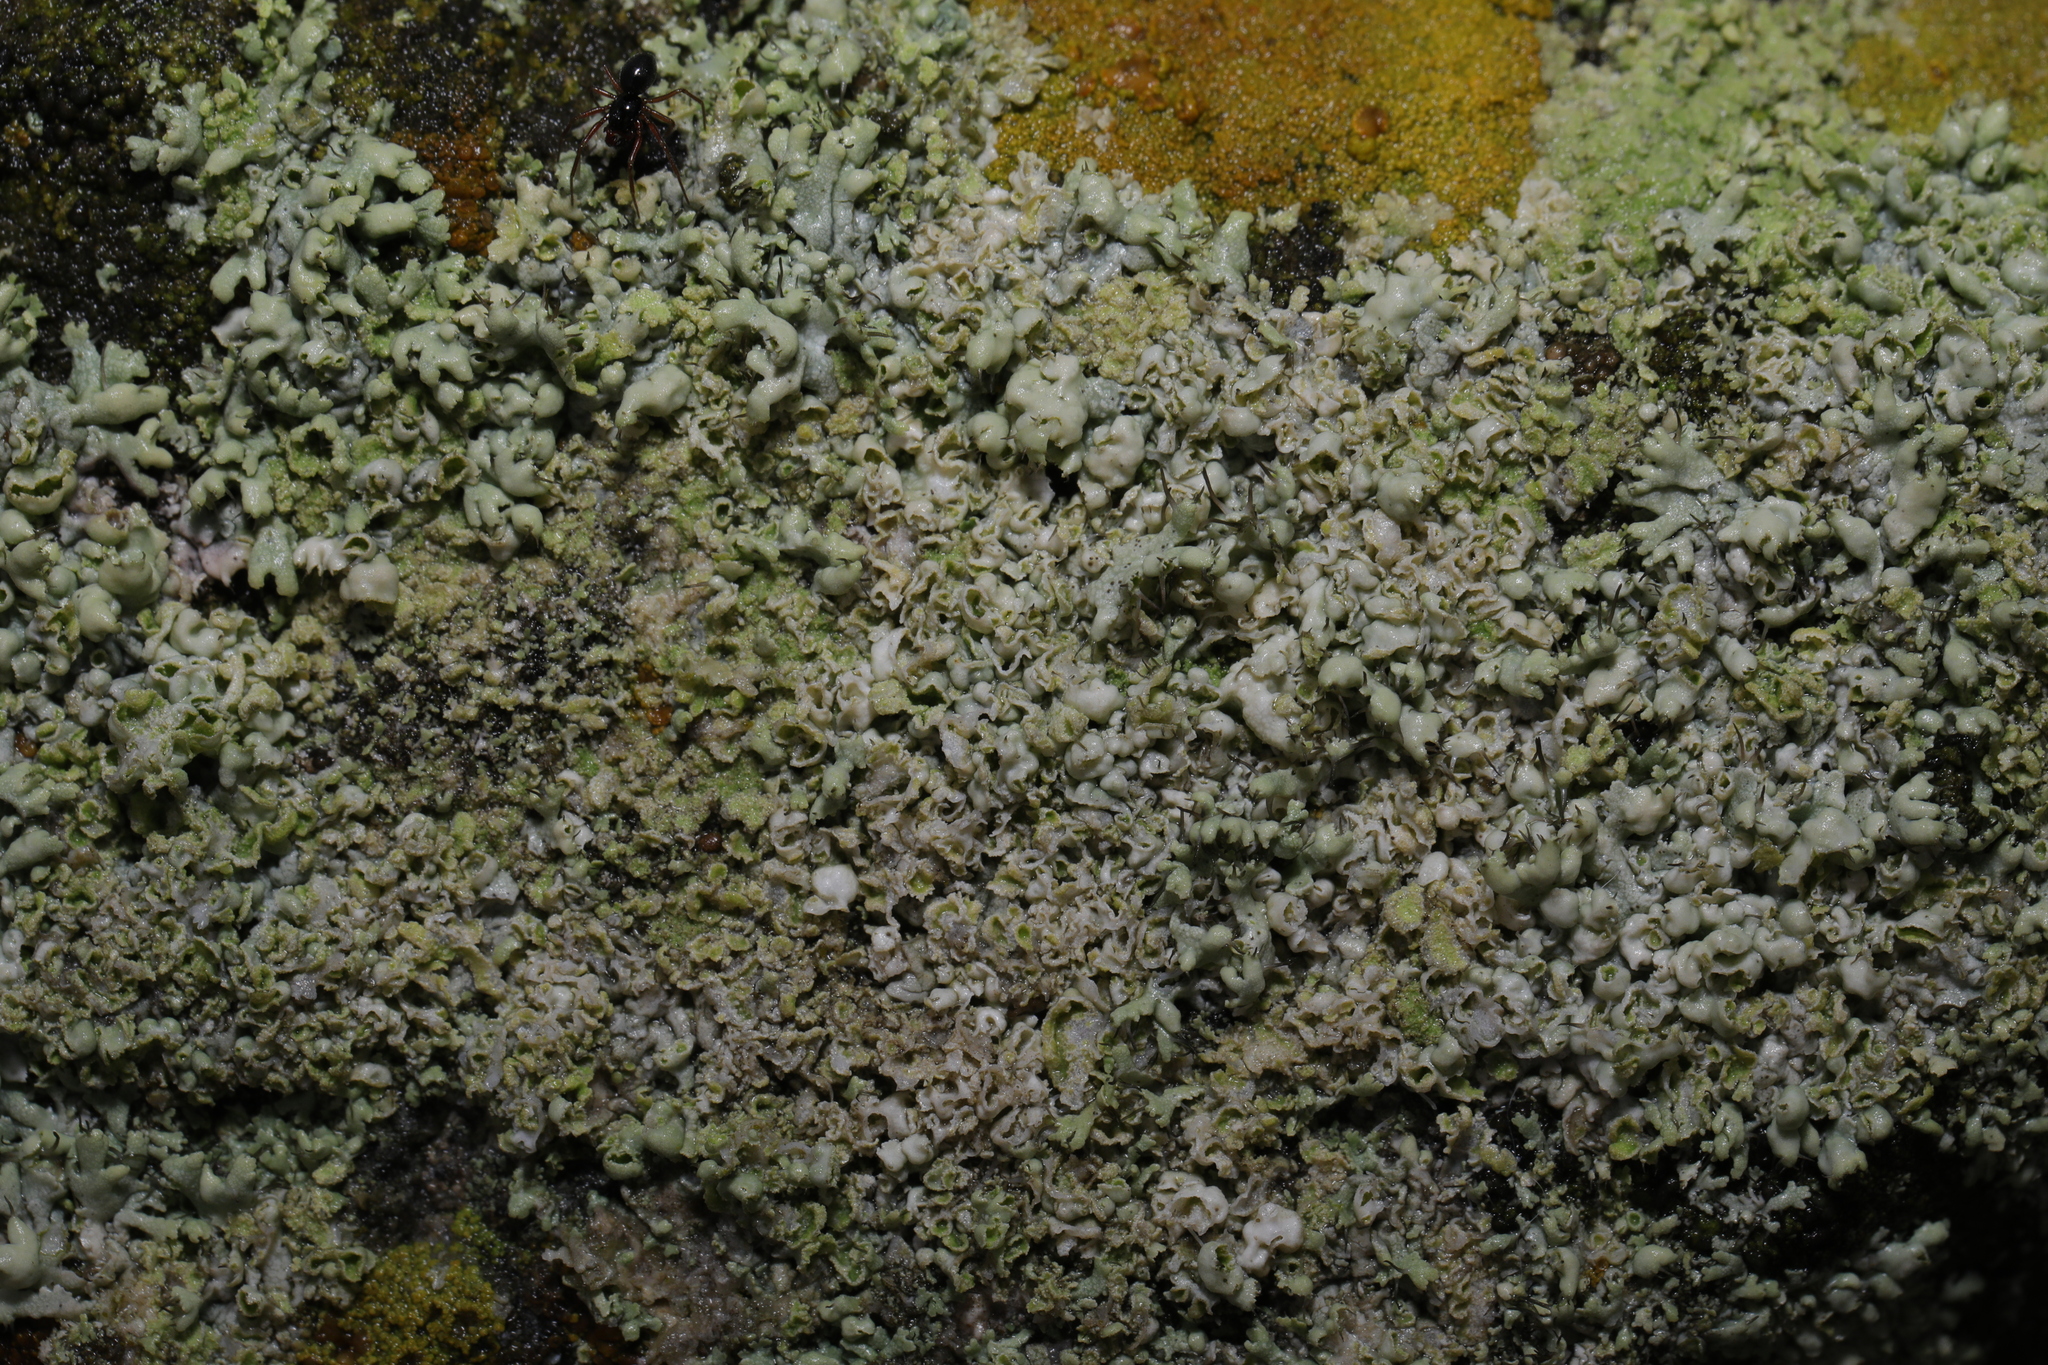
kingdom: Fungi
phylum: Ascomycota
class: Lecanoromycetes
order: Caliciales
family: Physciaceae
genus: Physcia
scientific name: Physcia adscendens
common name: Hooded rosette lichen
